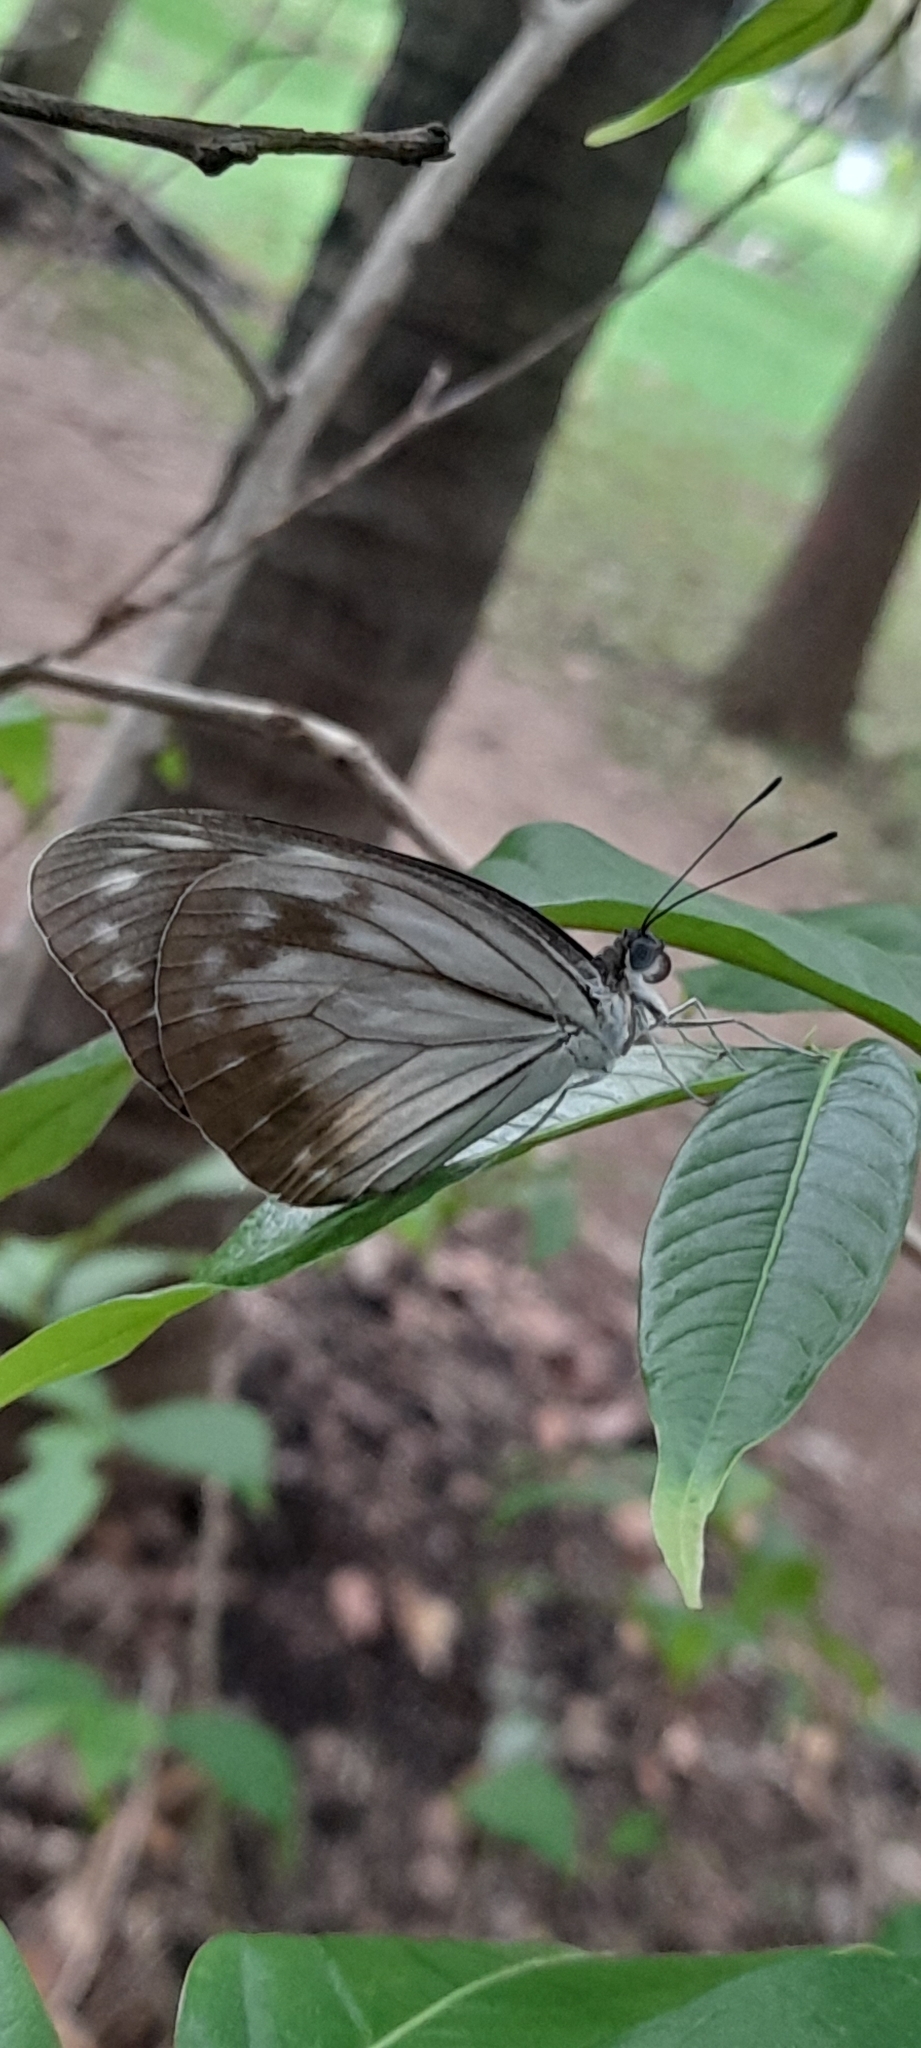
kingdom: Animalia
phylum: Arthropoda
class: Insecta
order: Lepidoptera
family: Pieridae
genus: Pareronia
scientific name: Pareronia hippia
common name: Indian wanderer
